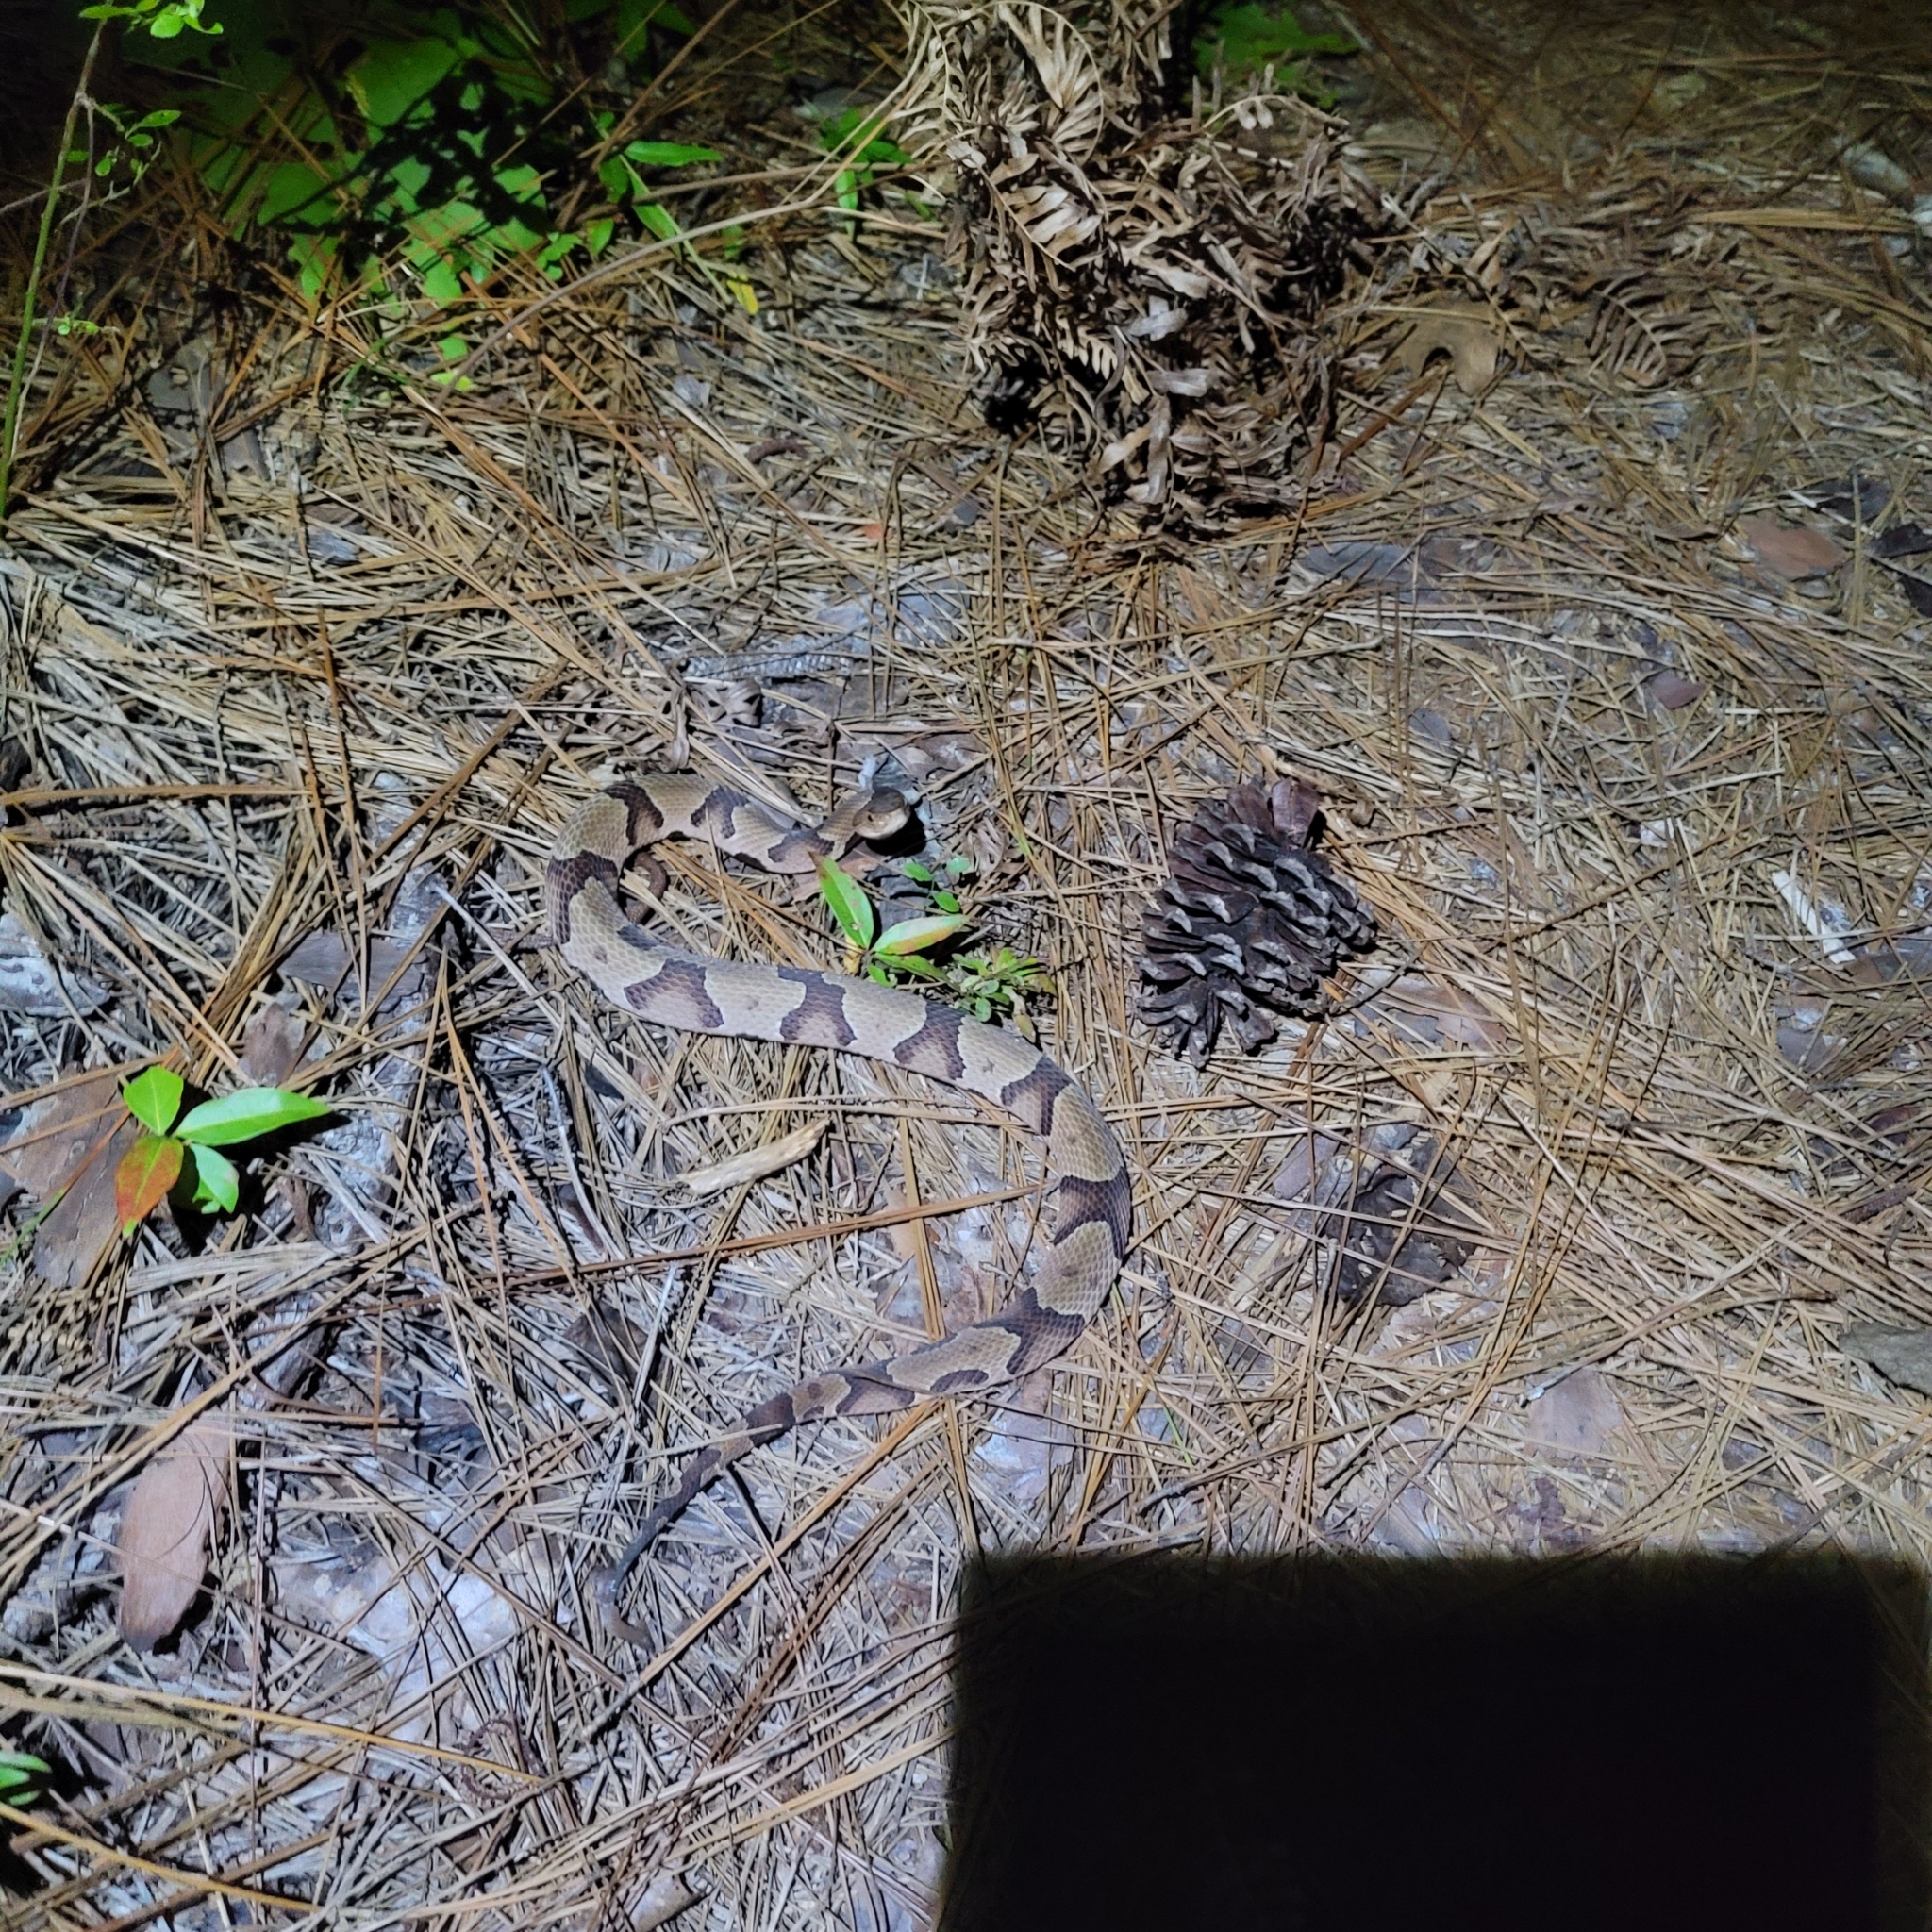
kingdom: Animalia
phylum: Chordata
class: Squamata
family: Viperidae
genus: Agkistrodon
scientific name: Agkistrodon contortrix
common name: Northern copperhead
